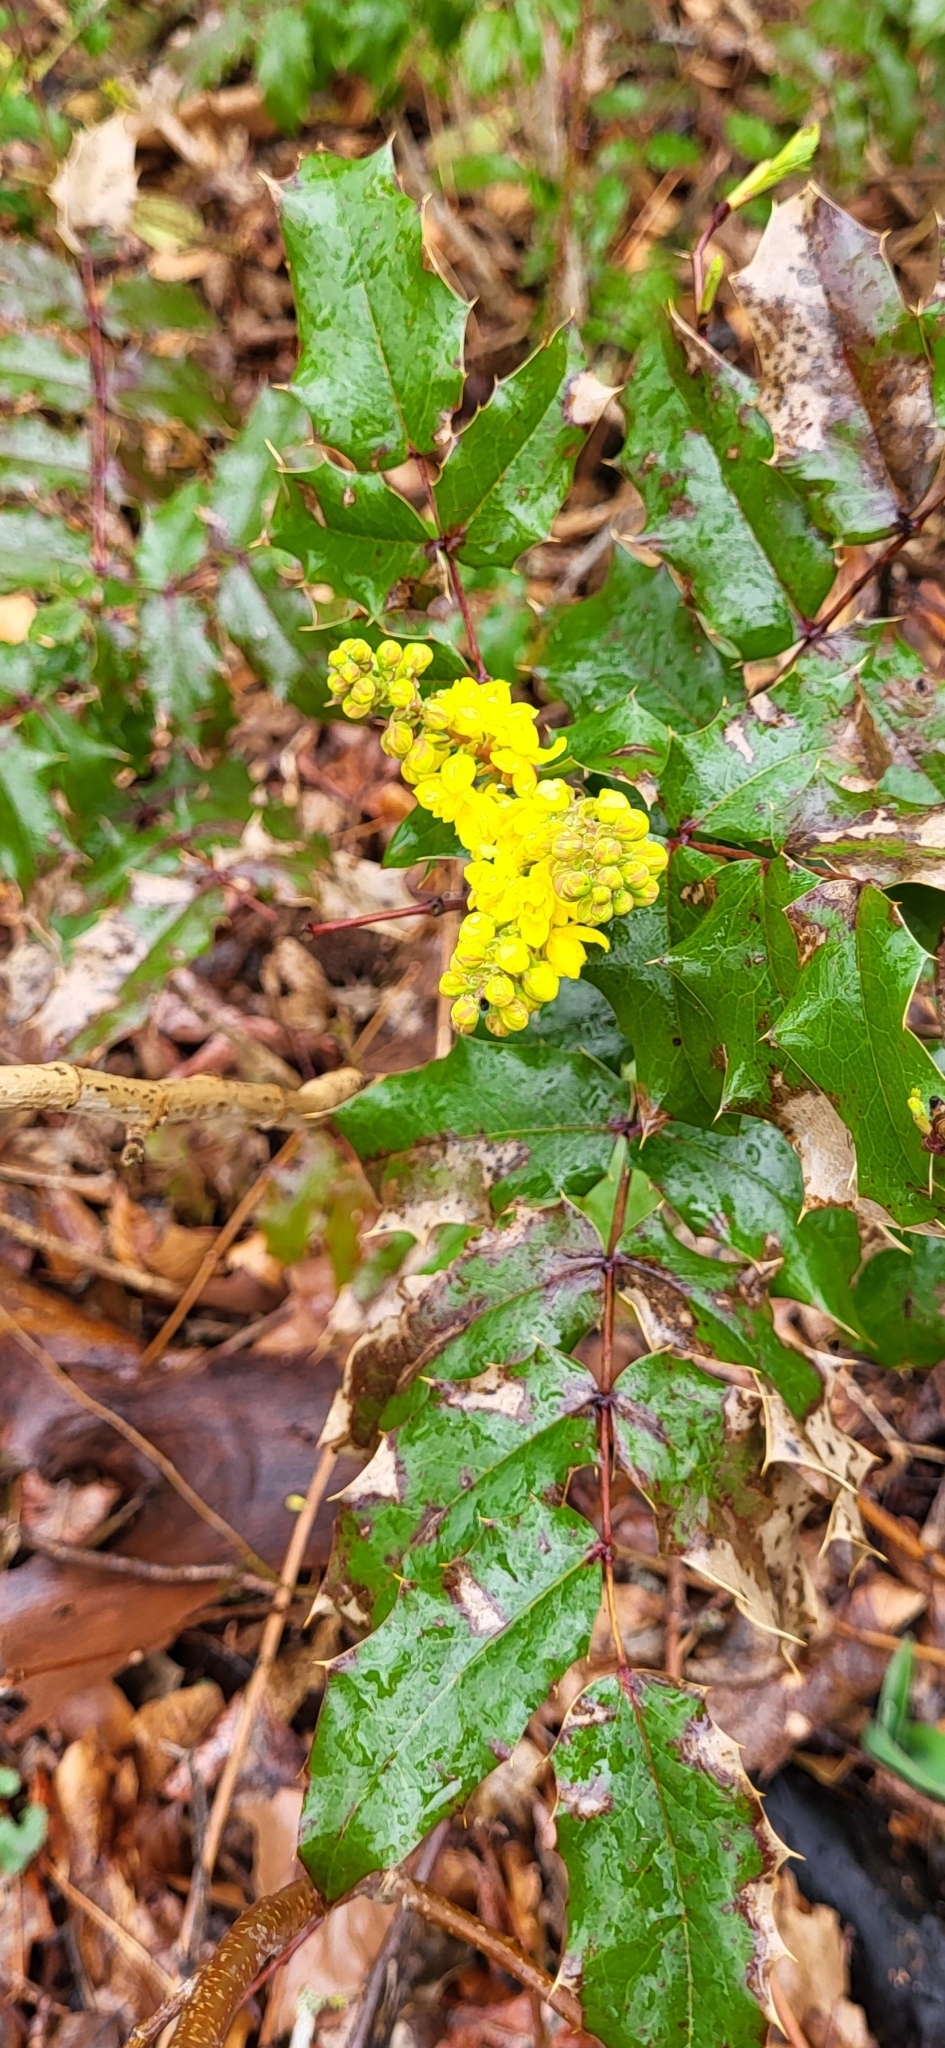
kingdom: Plantae
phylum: Tracheophyta
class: Magnoliopsida
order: Ranunculales
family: Berberidaceae
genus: Mahonia
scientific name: Mahonia aquifolium
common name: Oregon-grape
